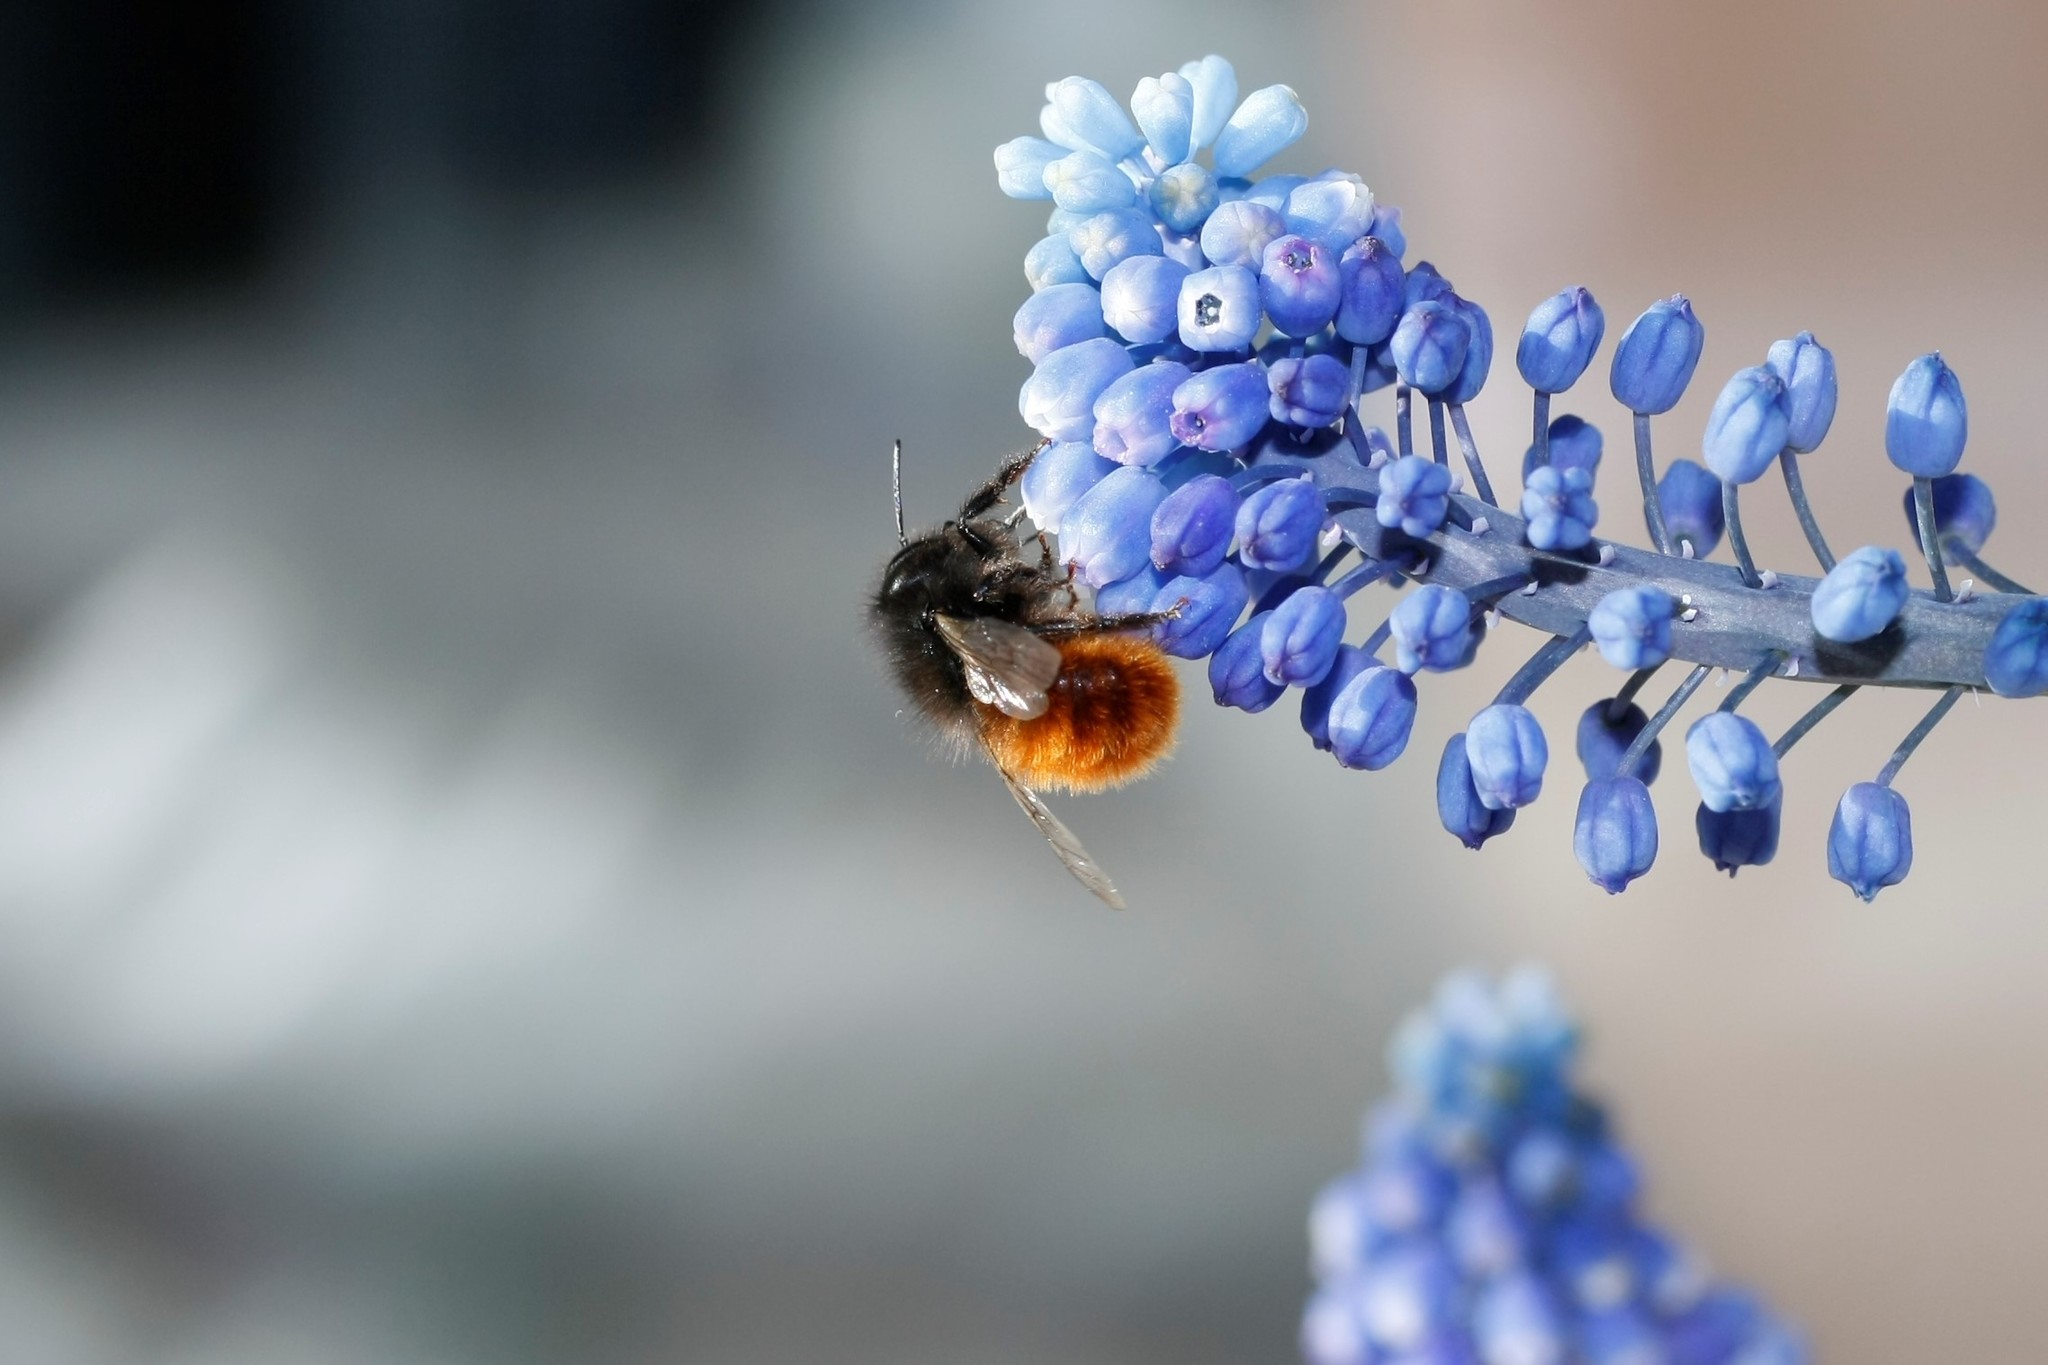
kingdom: Animalia
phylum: Arthropoda
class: Insecta
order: Hymenoptera
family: Megachilidae
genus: Osmia
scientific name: Osmia cornuta
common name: Mason bee
